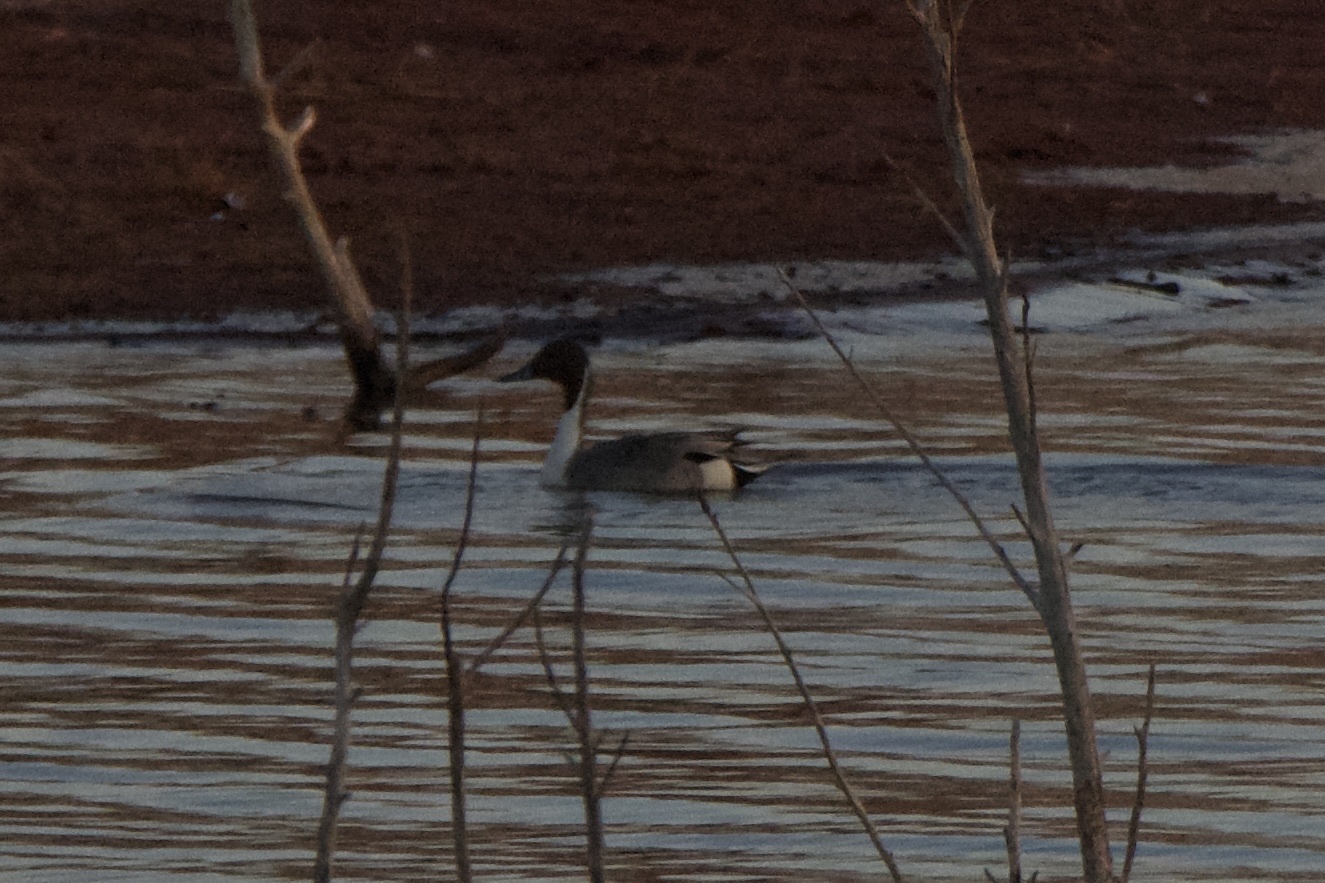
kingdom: Animalia
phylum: Chordata
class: Aves
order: Anseriformes
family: Anatidae
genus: Anas
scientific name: Anas acuta
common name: Northern pintail
